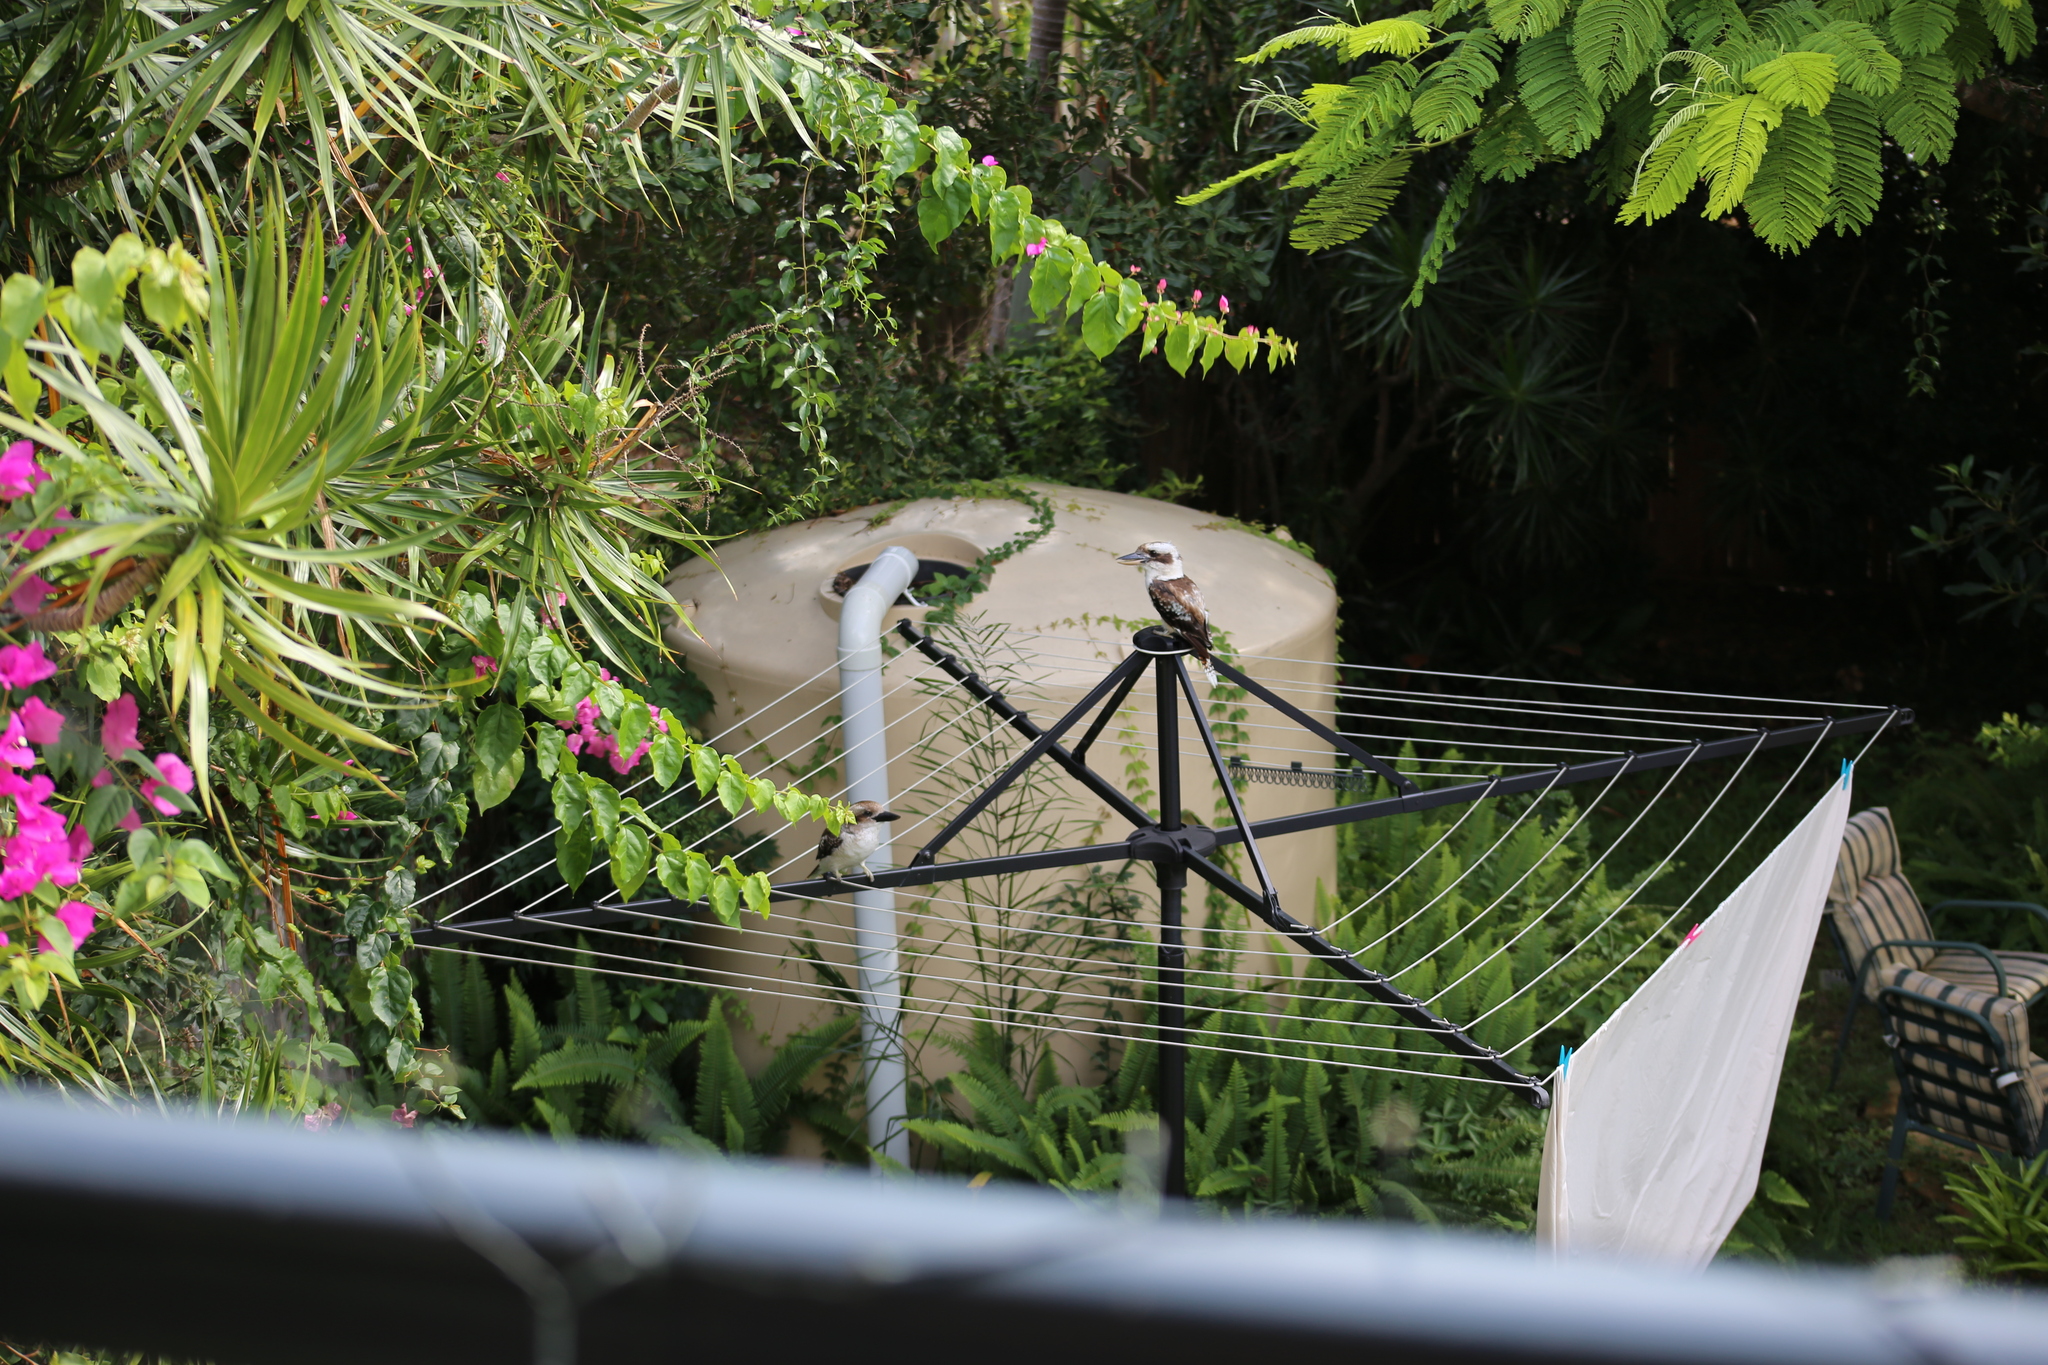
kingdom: Animalia
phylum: Chordata
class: Aves
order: Coraciiformes
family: Alcedinidae
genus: Dacelo
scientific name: Dacelo novaeguineae
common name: Laughing kookaburra
